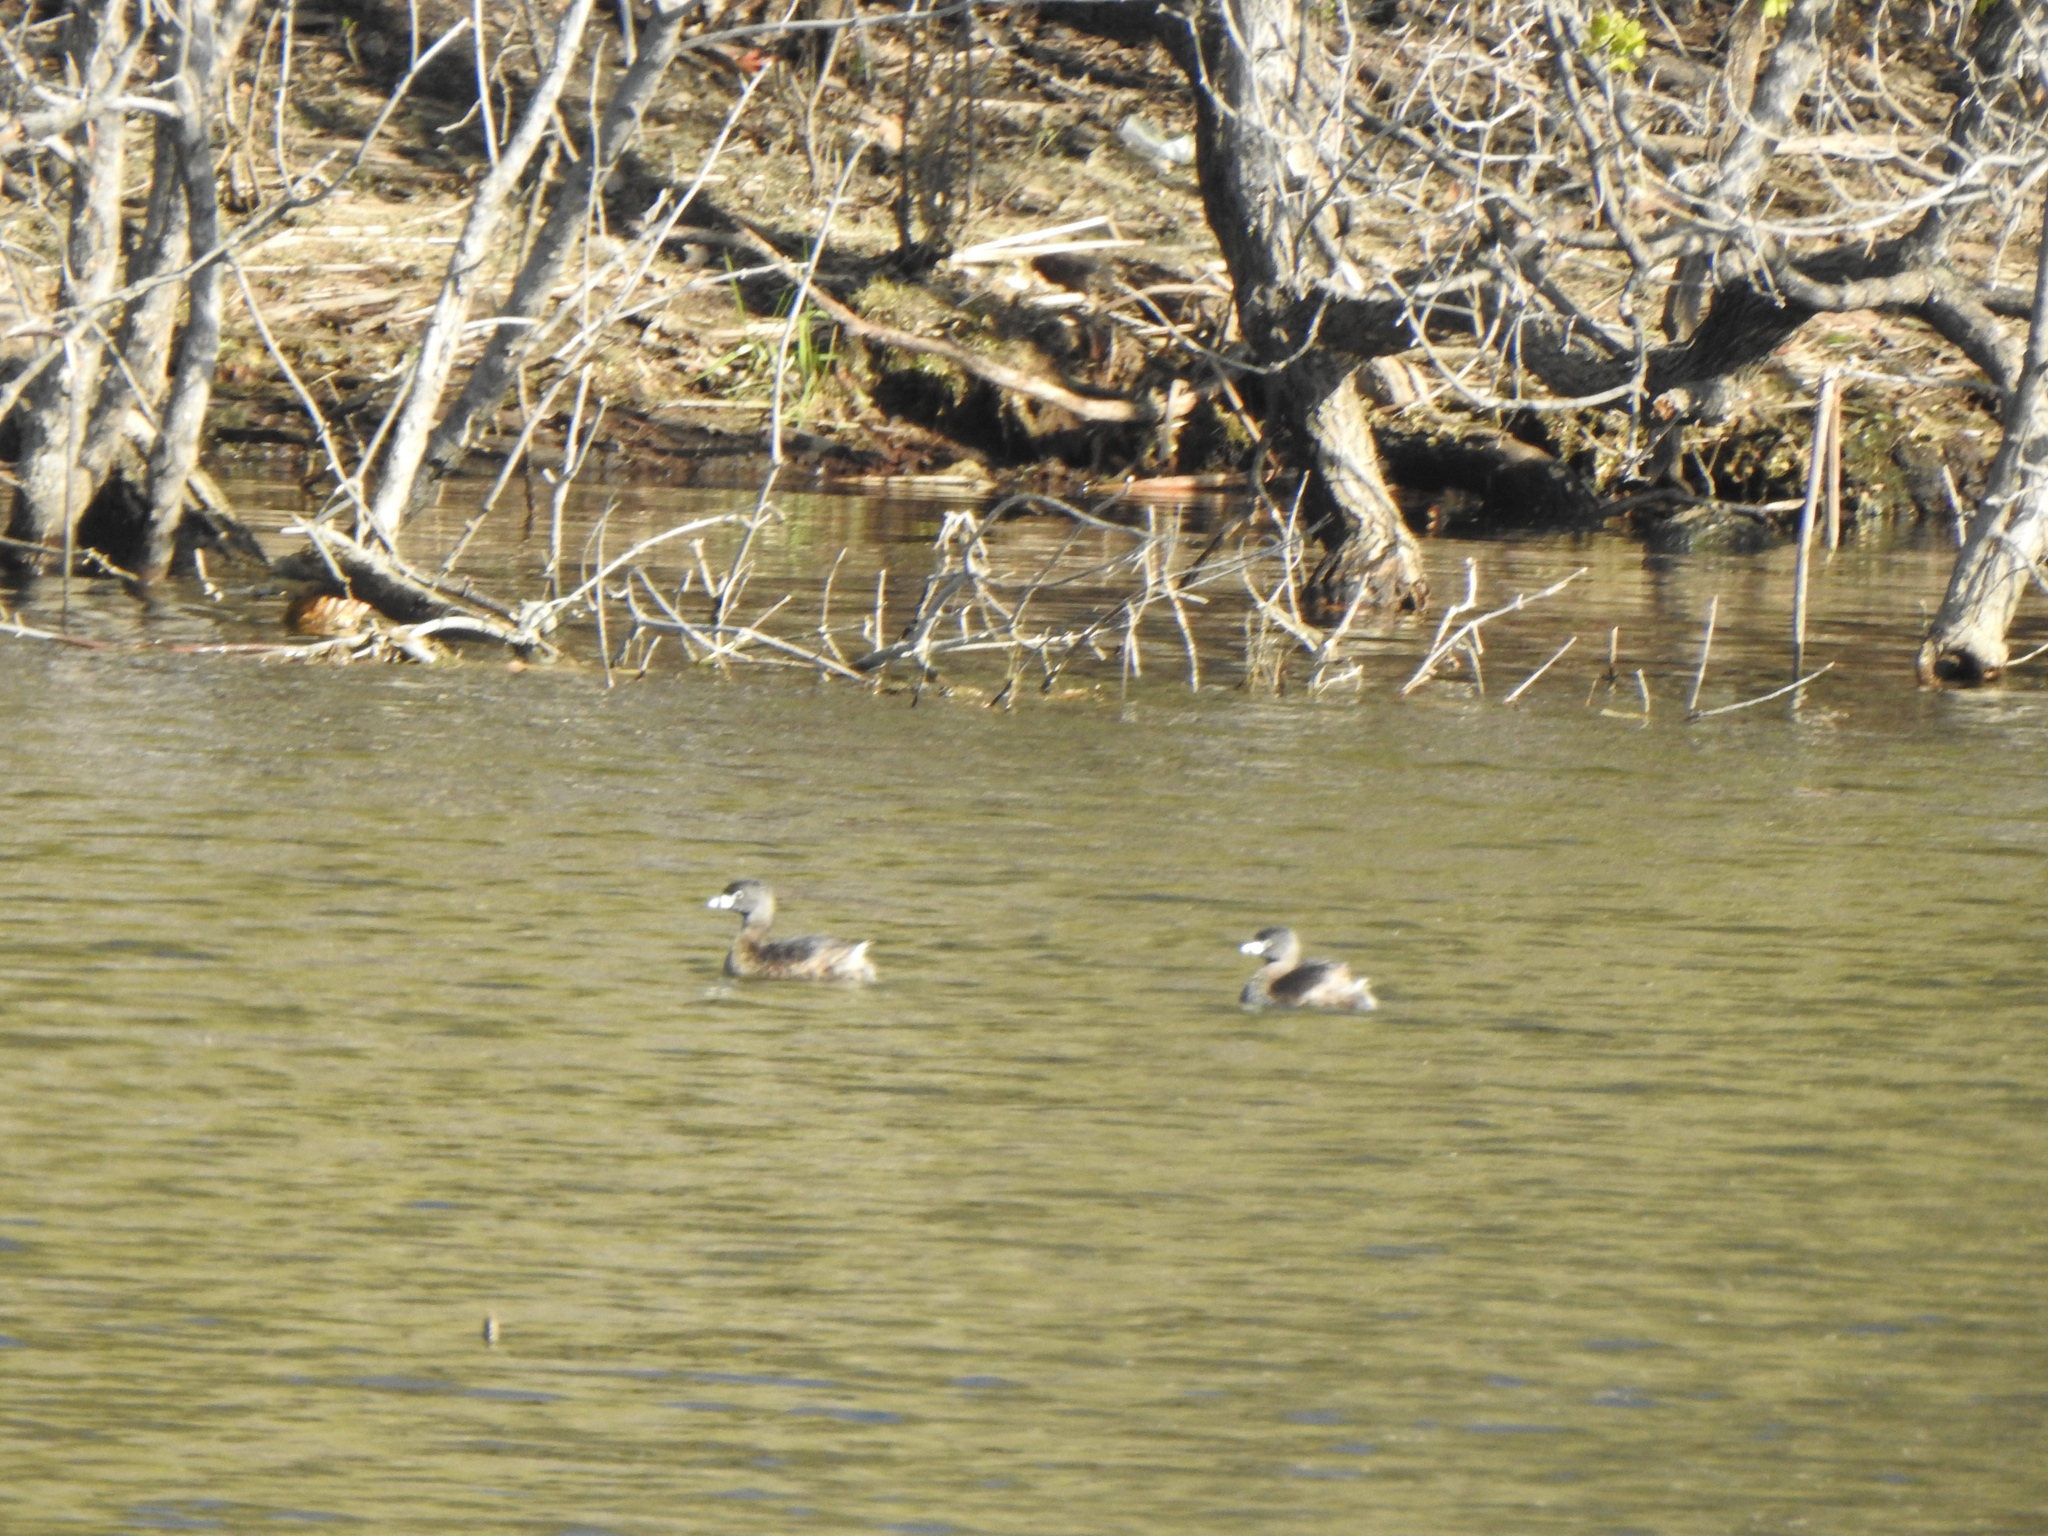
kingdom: Animalia
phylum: Chordata
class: Aves
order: Podicipediformes
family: Podicipedidae
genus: Podilymbus
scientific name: Podilymbus podiceps
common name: Pied-billed grebe
